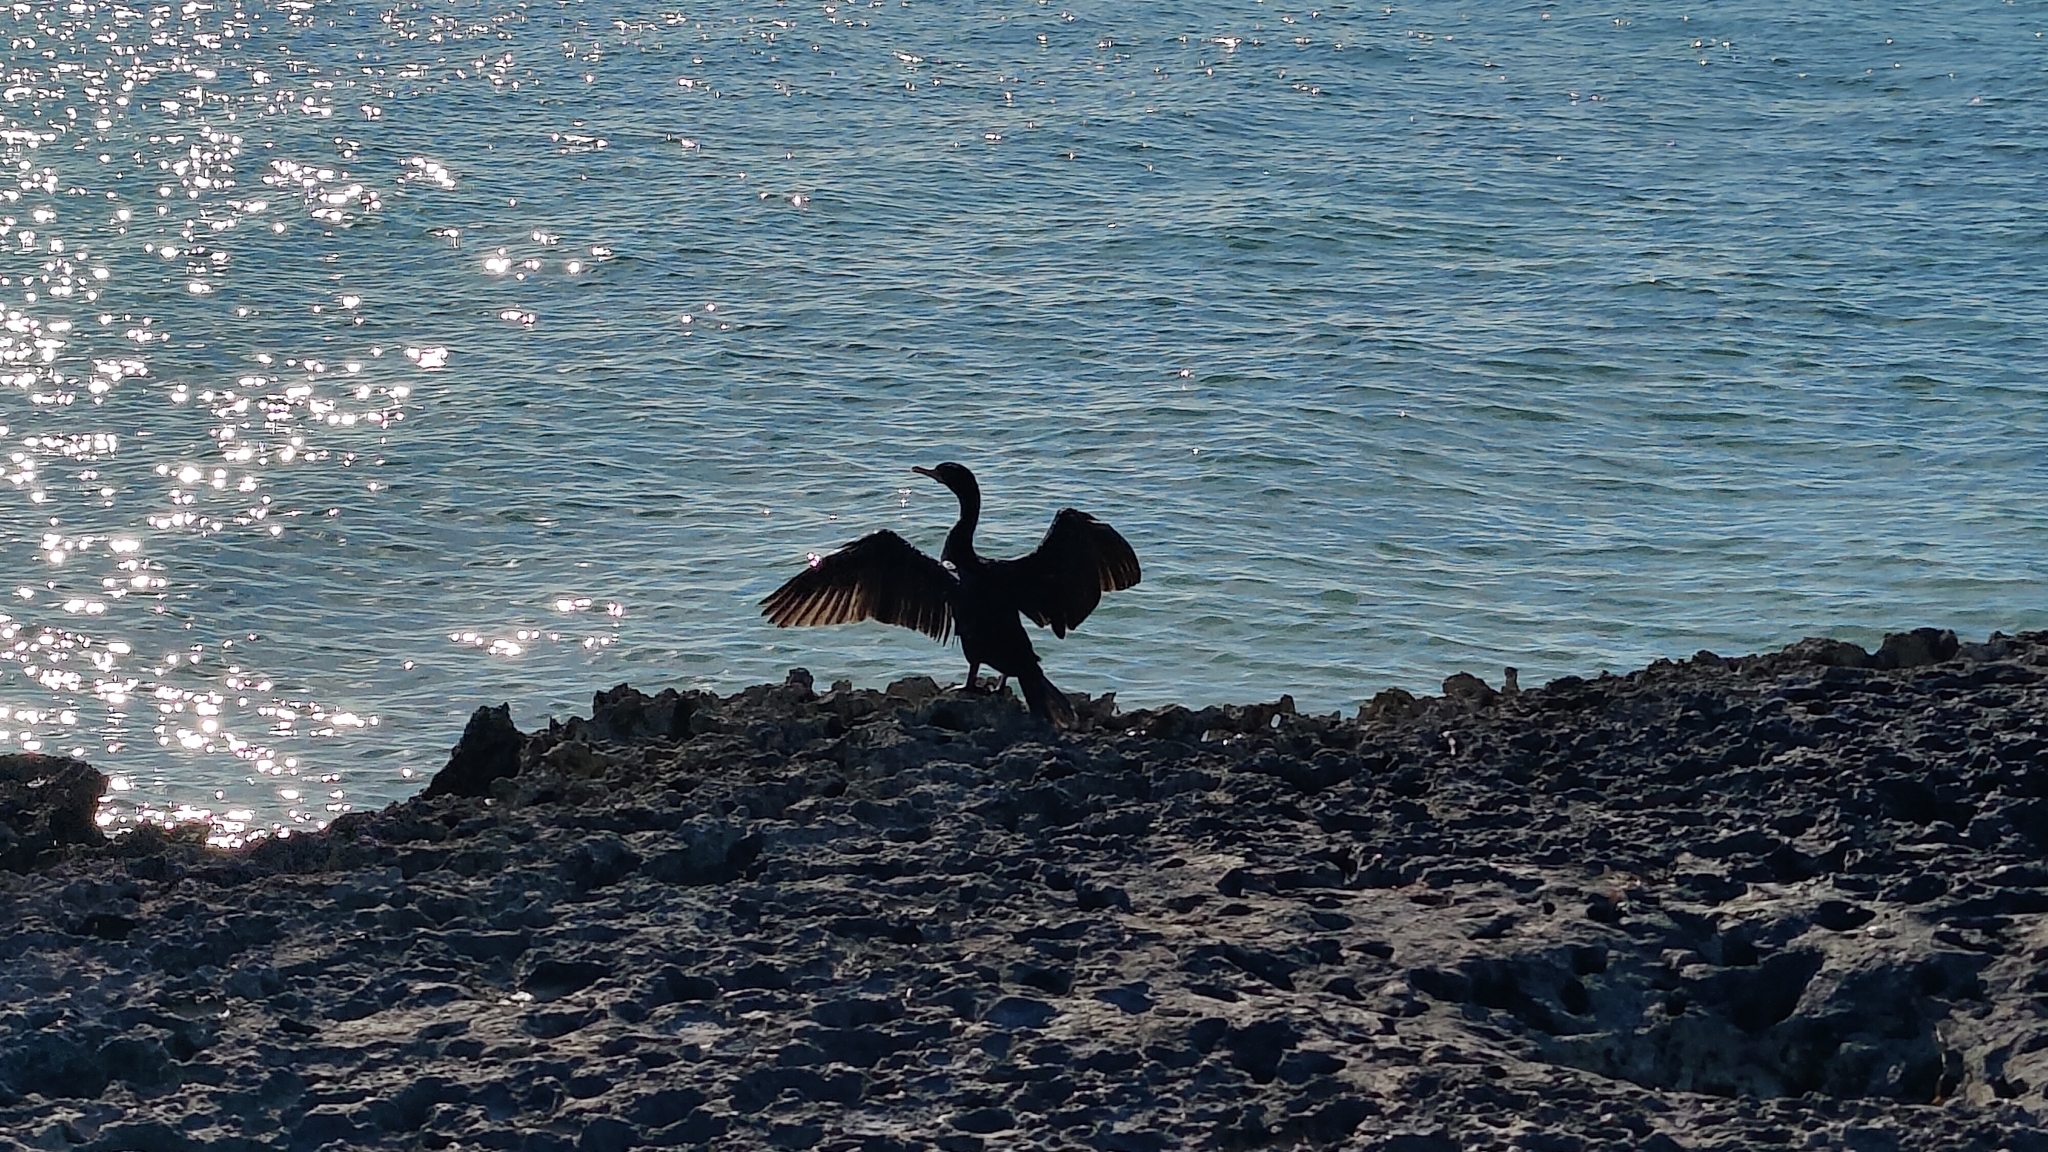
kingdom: Animalia
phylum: Chordata
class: Aves
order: Suliformes
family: Phalacrocoracidae
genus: Phalacrocorax
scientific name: Phalacrocorax auritus
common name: Double-crested cormorant
